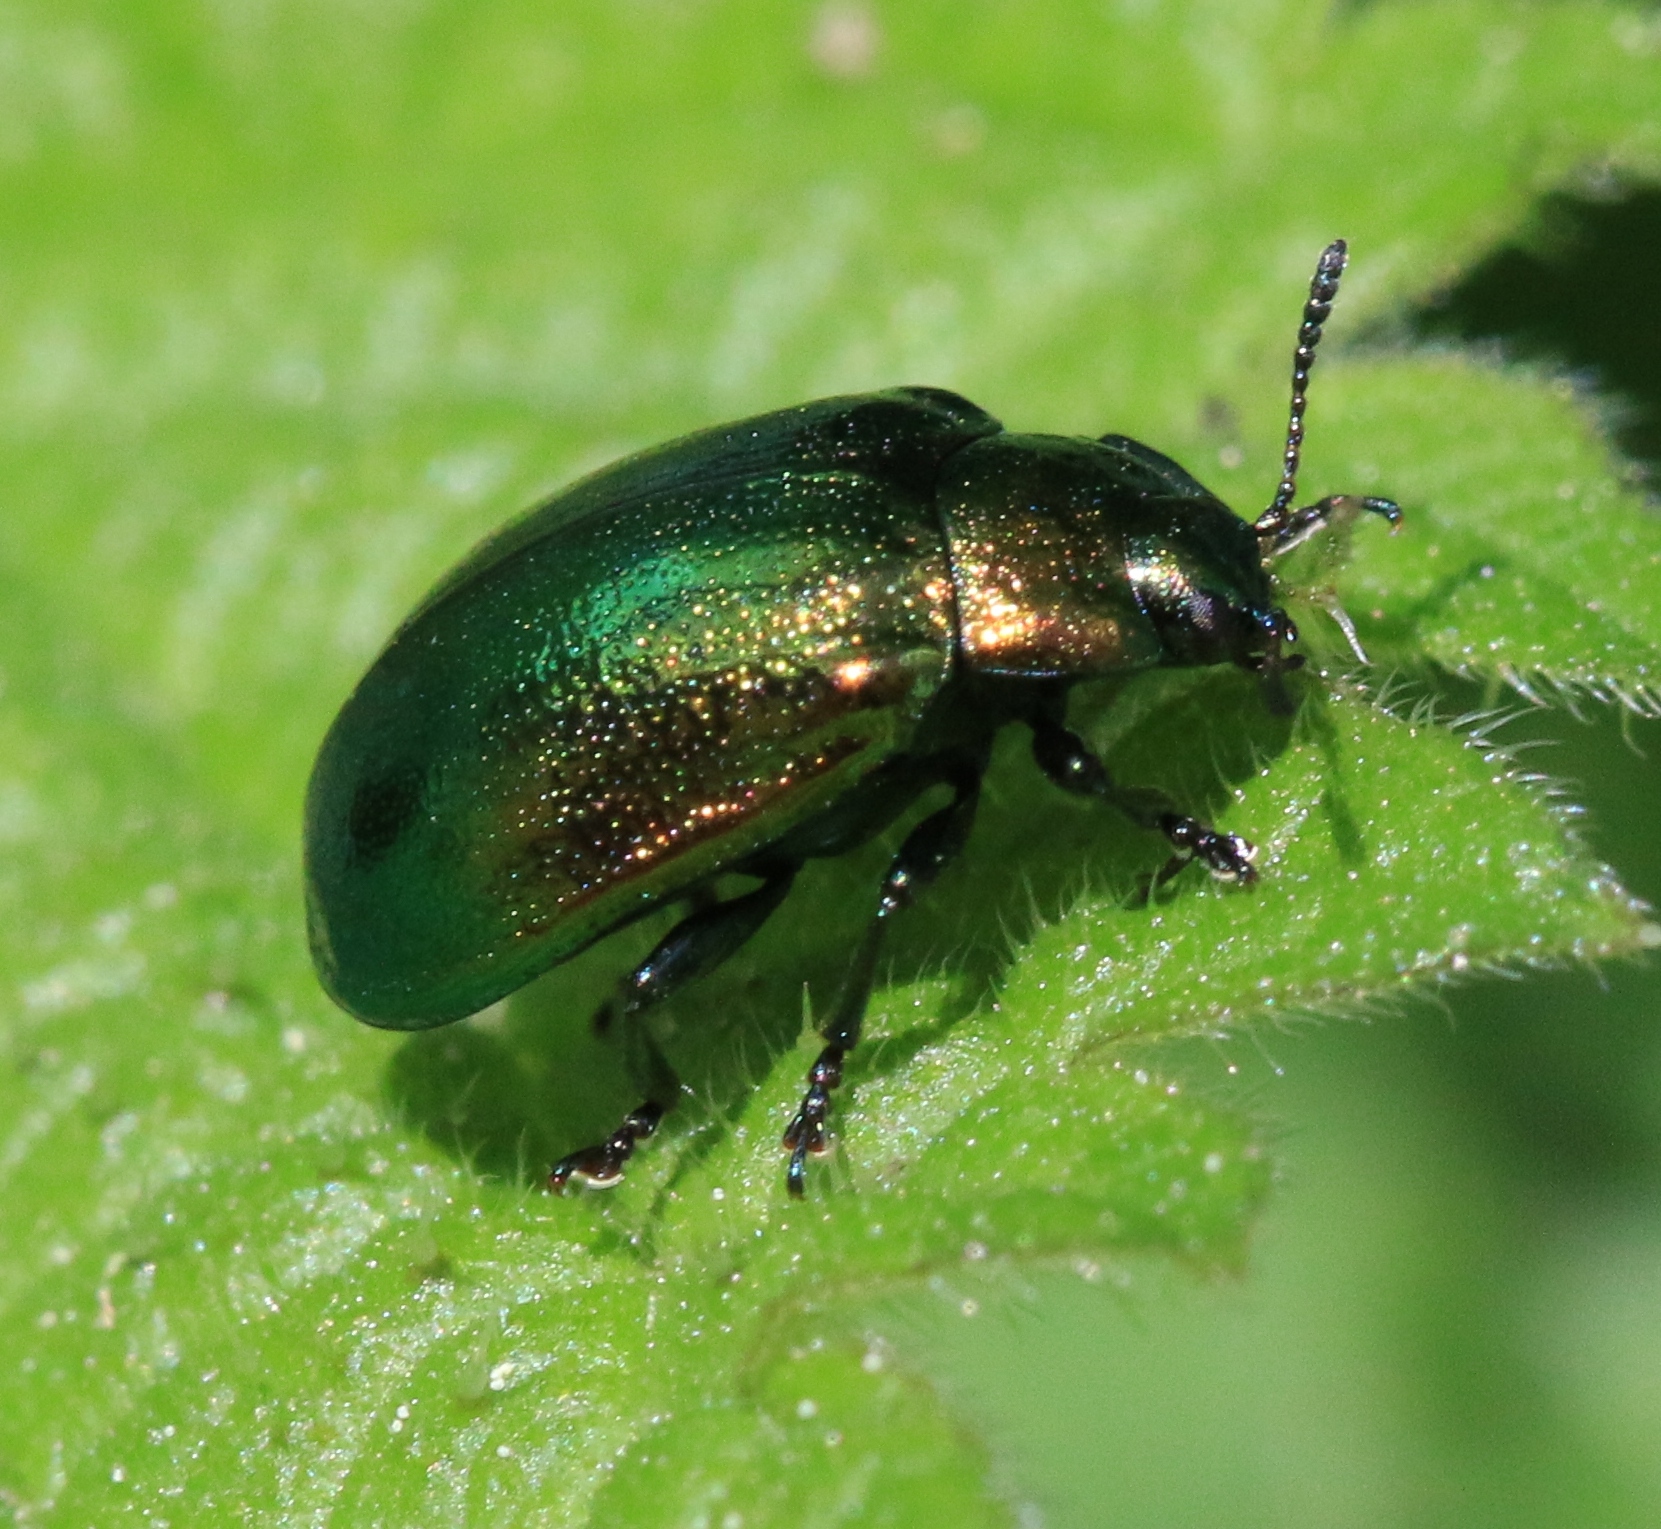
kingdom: Animalia
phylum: Arthropoda
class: Insecta
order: Coleoptera
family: Chrysomelidae
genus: Plagiosterna
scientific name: Plagiosterna aenea
